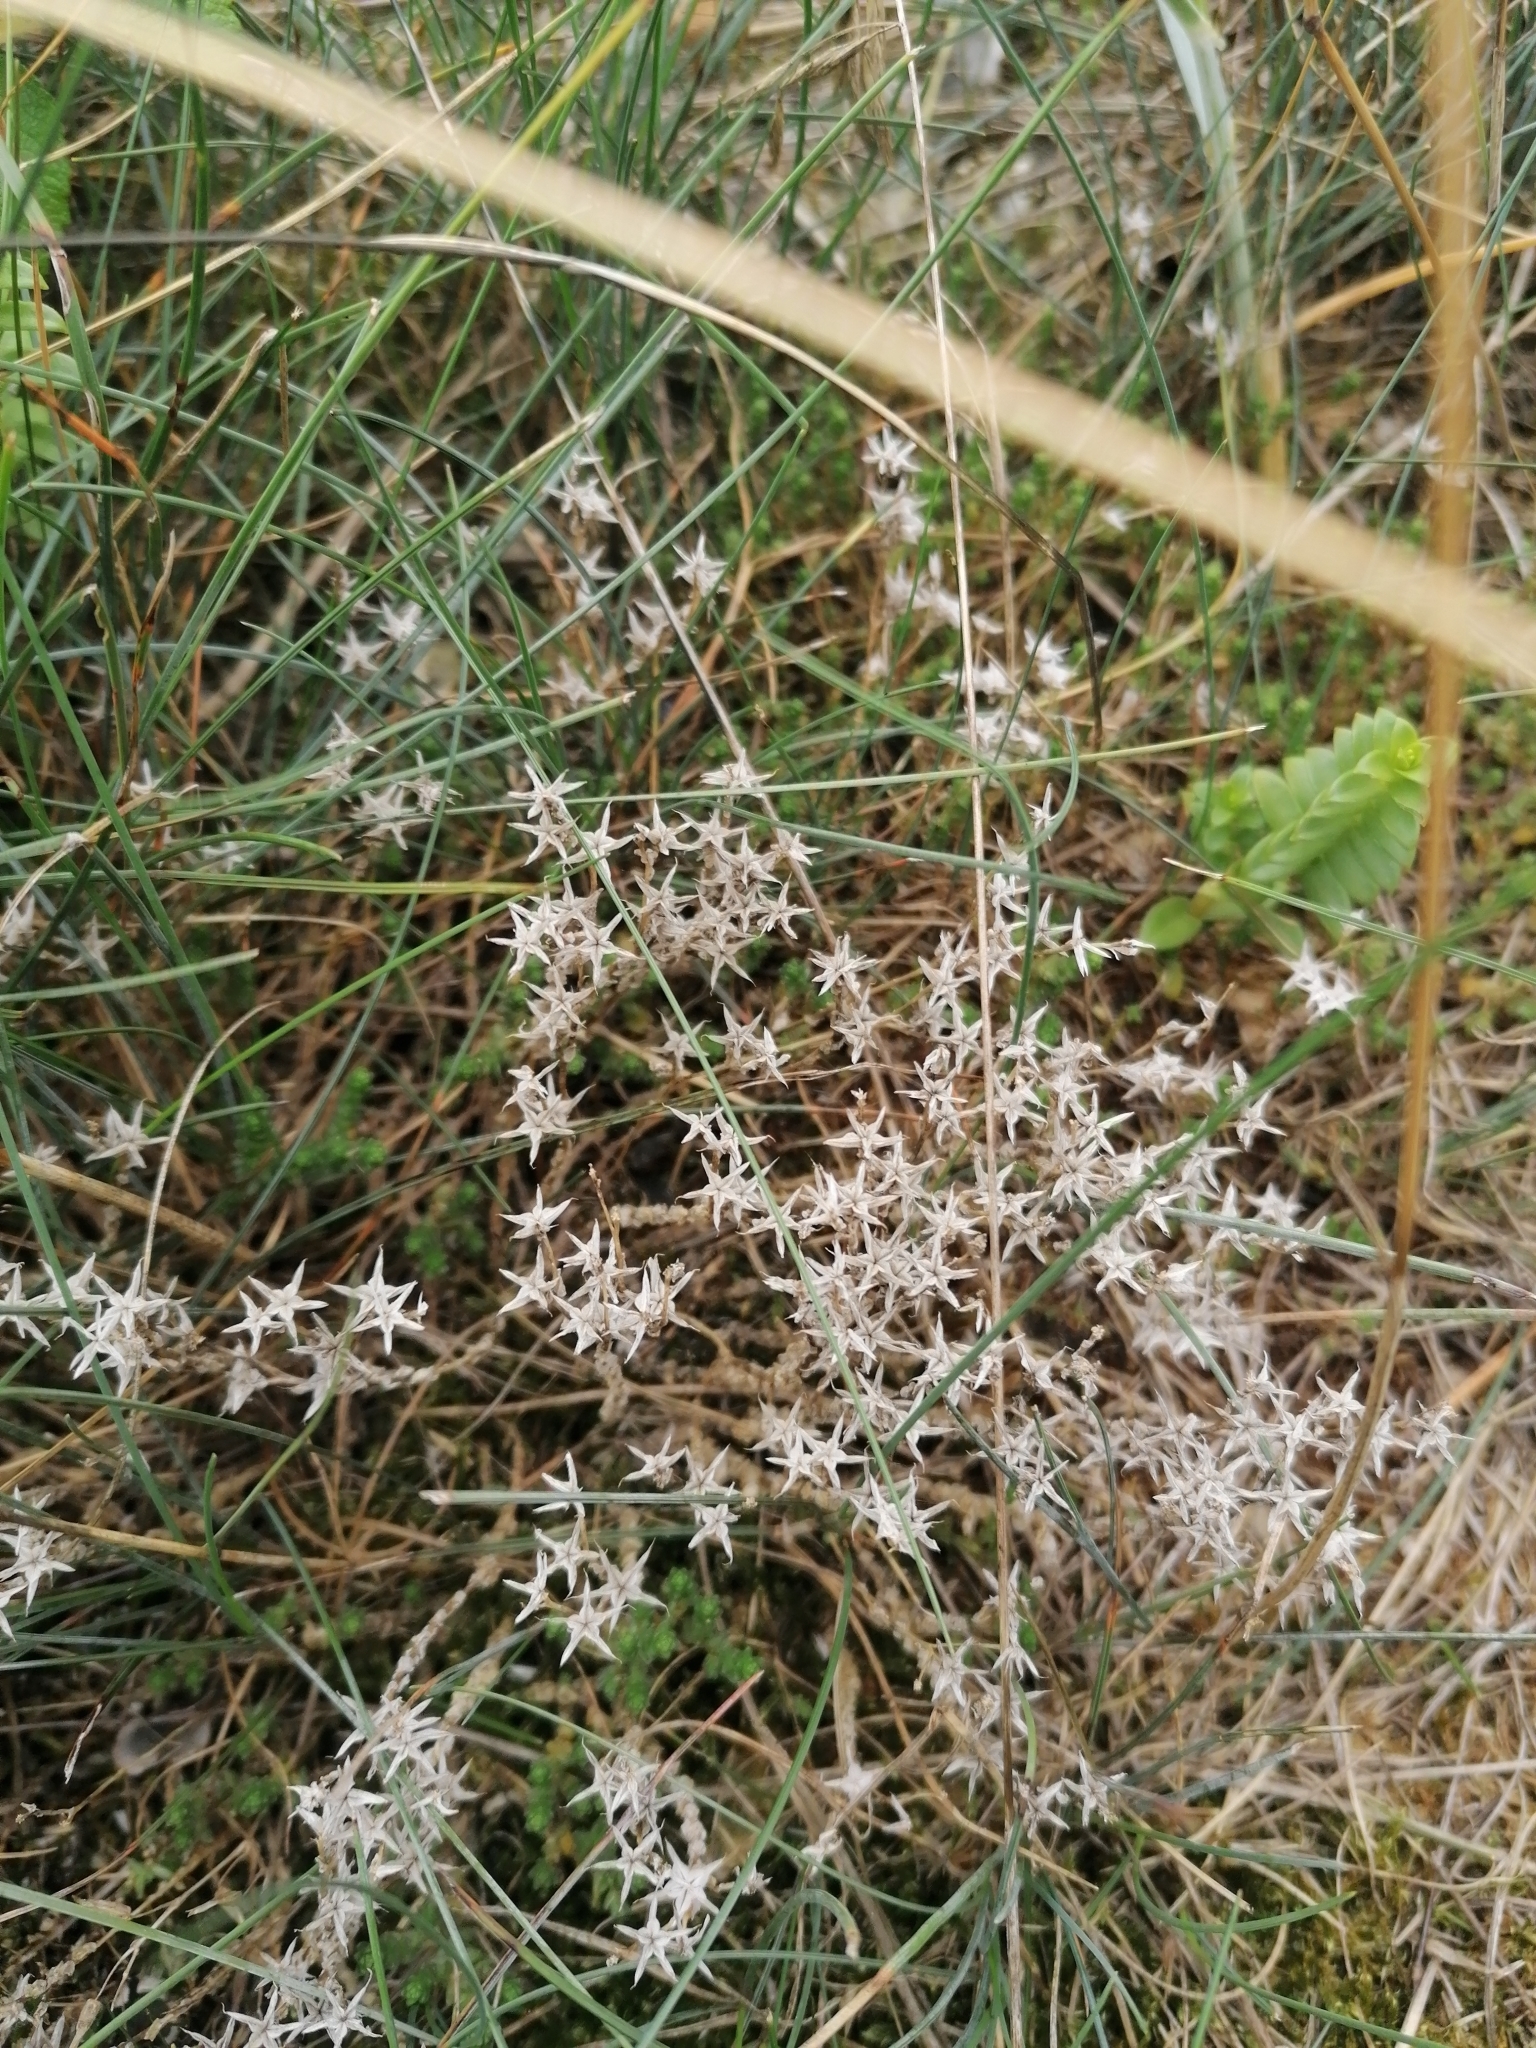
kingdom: Plantae
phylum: Tracheophyta
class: Magnoliopsida
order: Saxifragales
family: Crassulaceae
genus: Sedum
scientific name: Sedum acre
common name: Biting stonecrop
